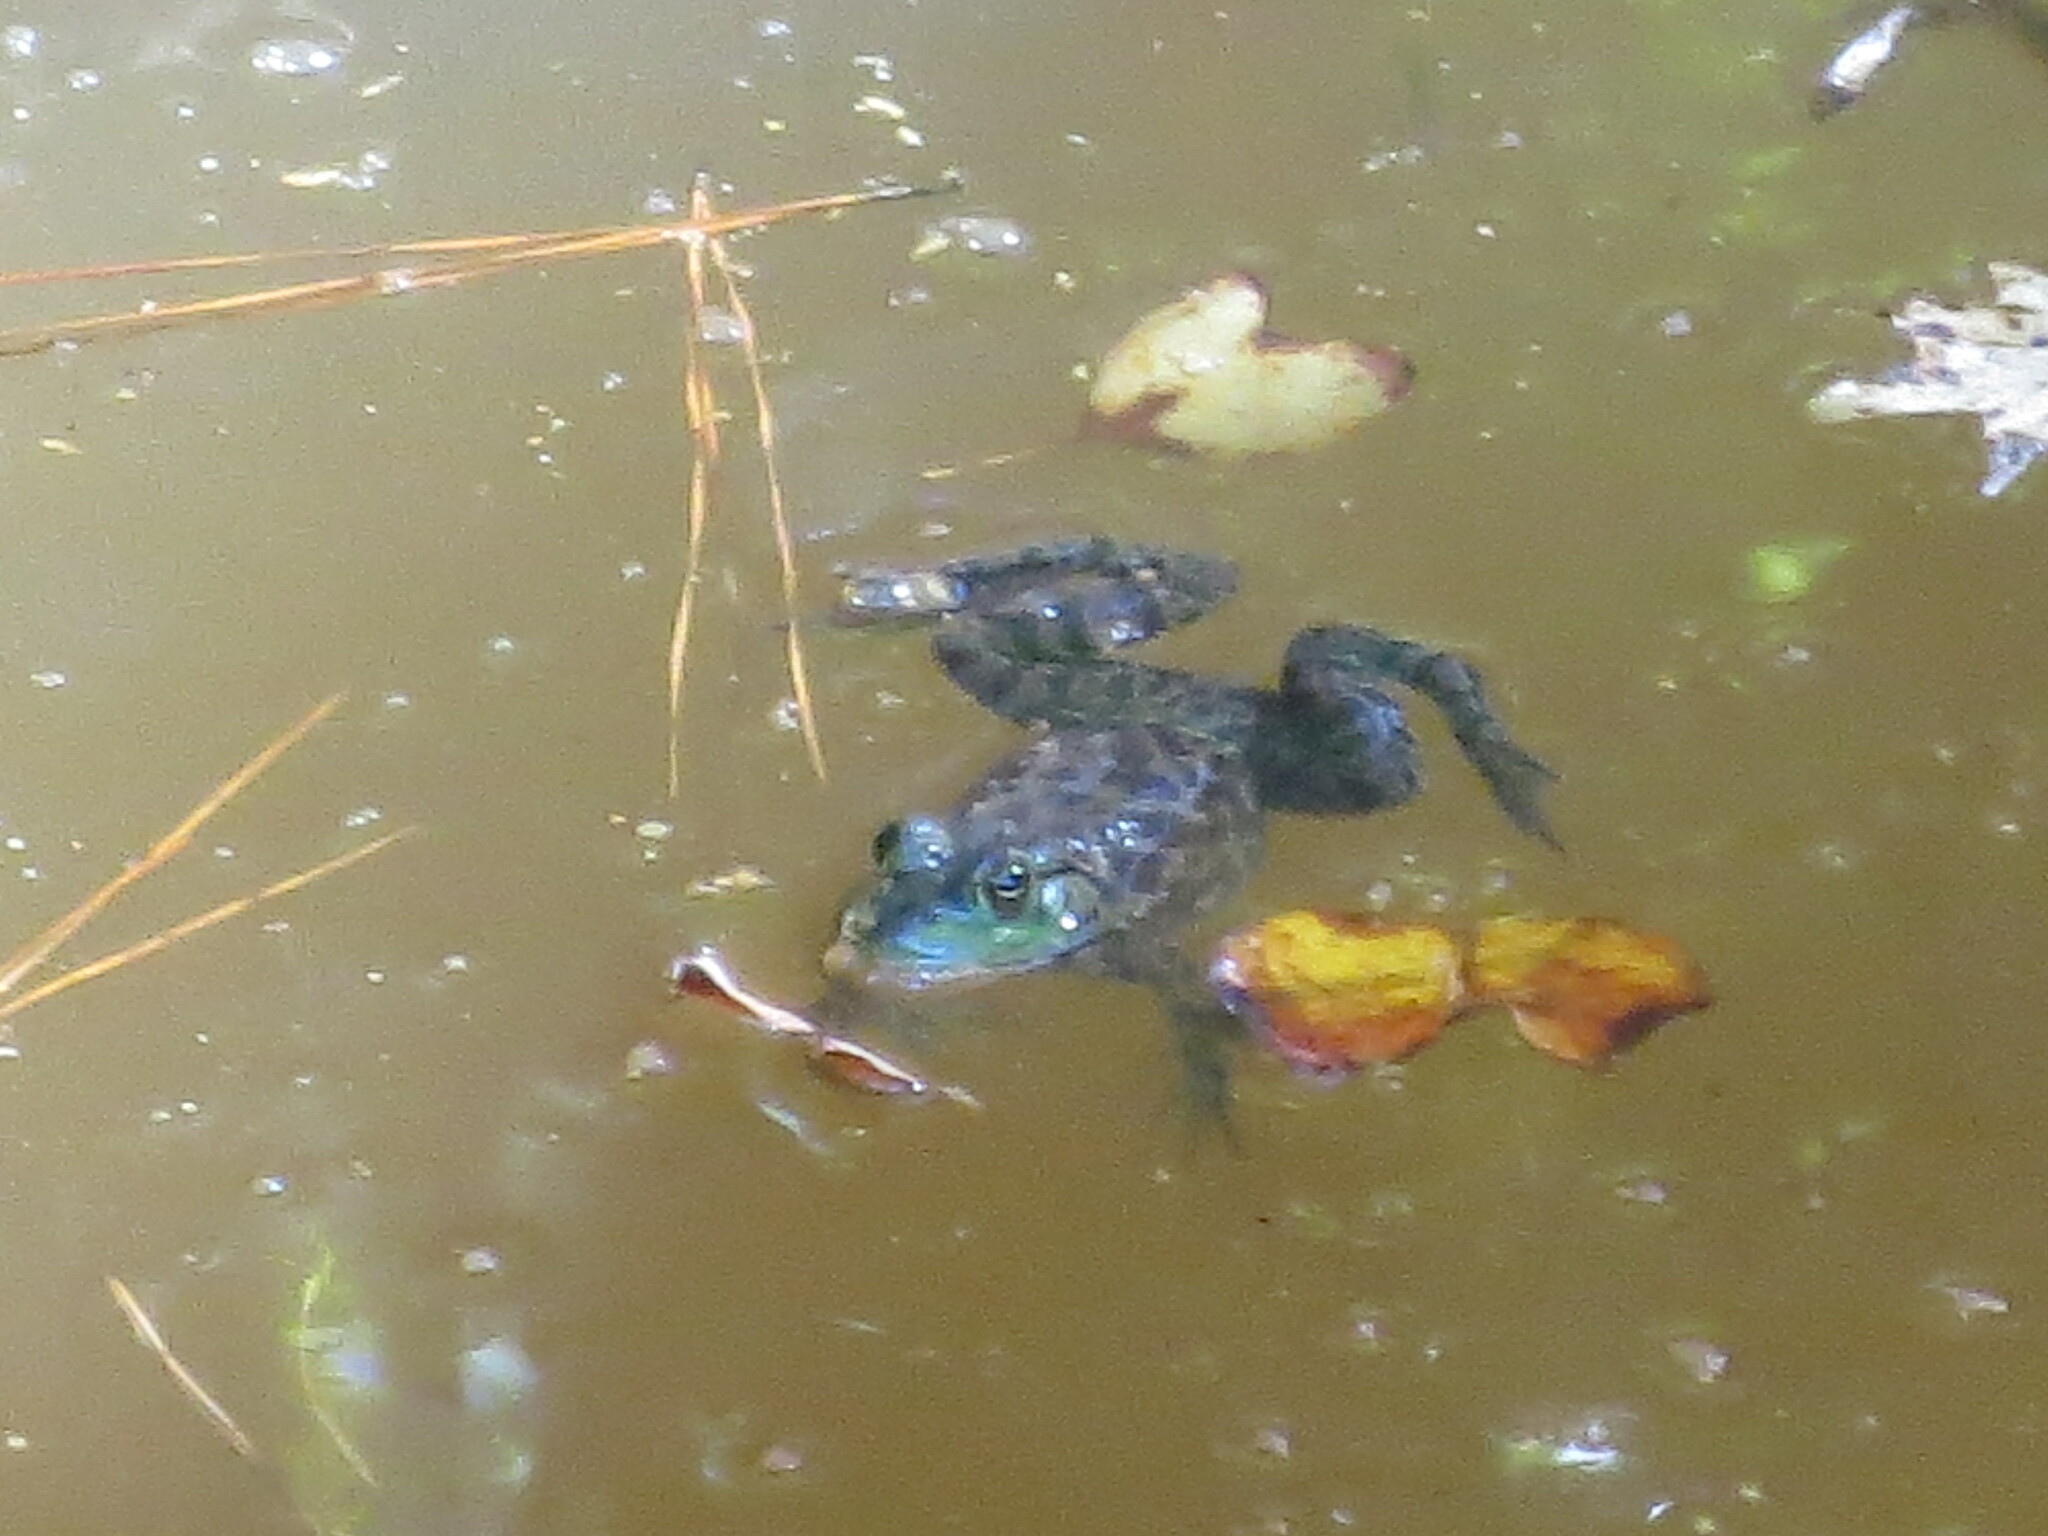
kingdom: Animalia
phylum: Chordata
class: Amphibia
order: Anura
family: Ranidae
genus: Lithobates
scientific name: Lithobates catesbeianus
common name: American bullfrog
